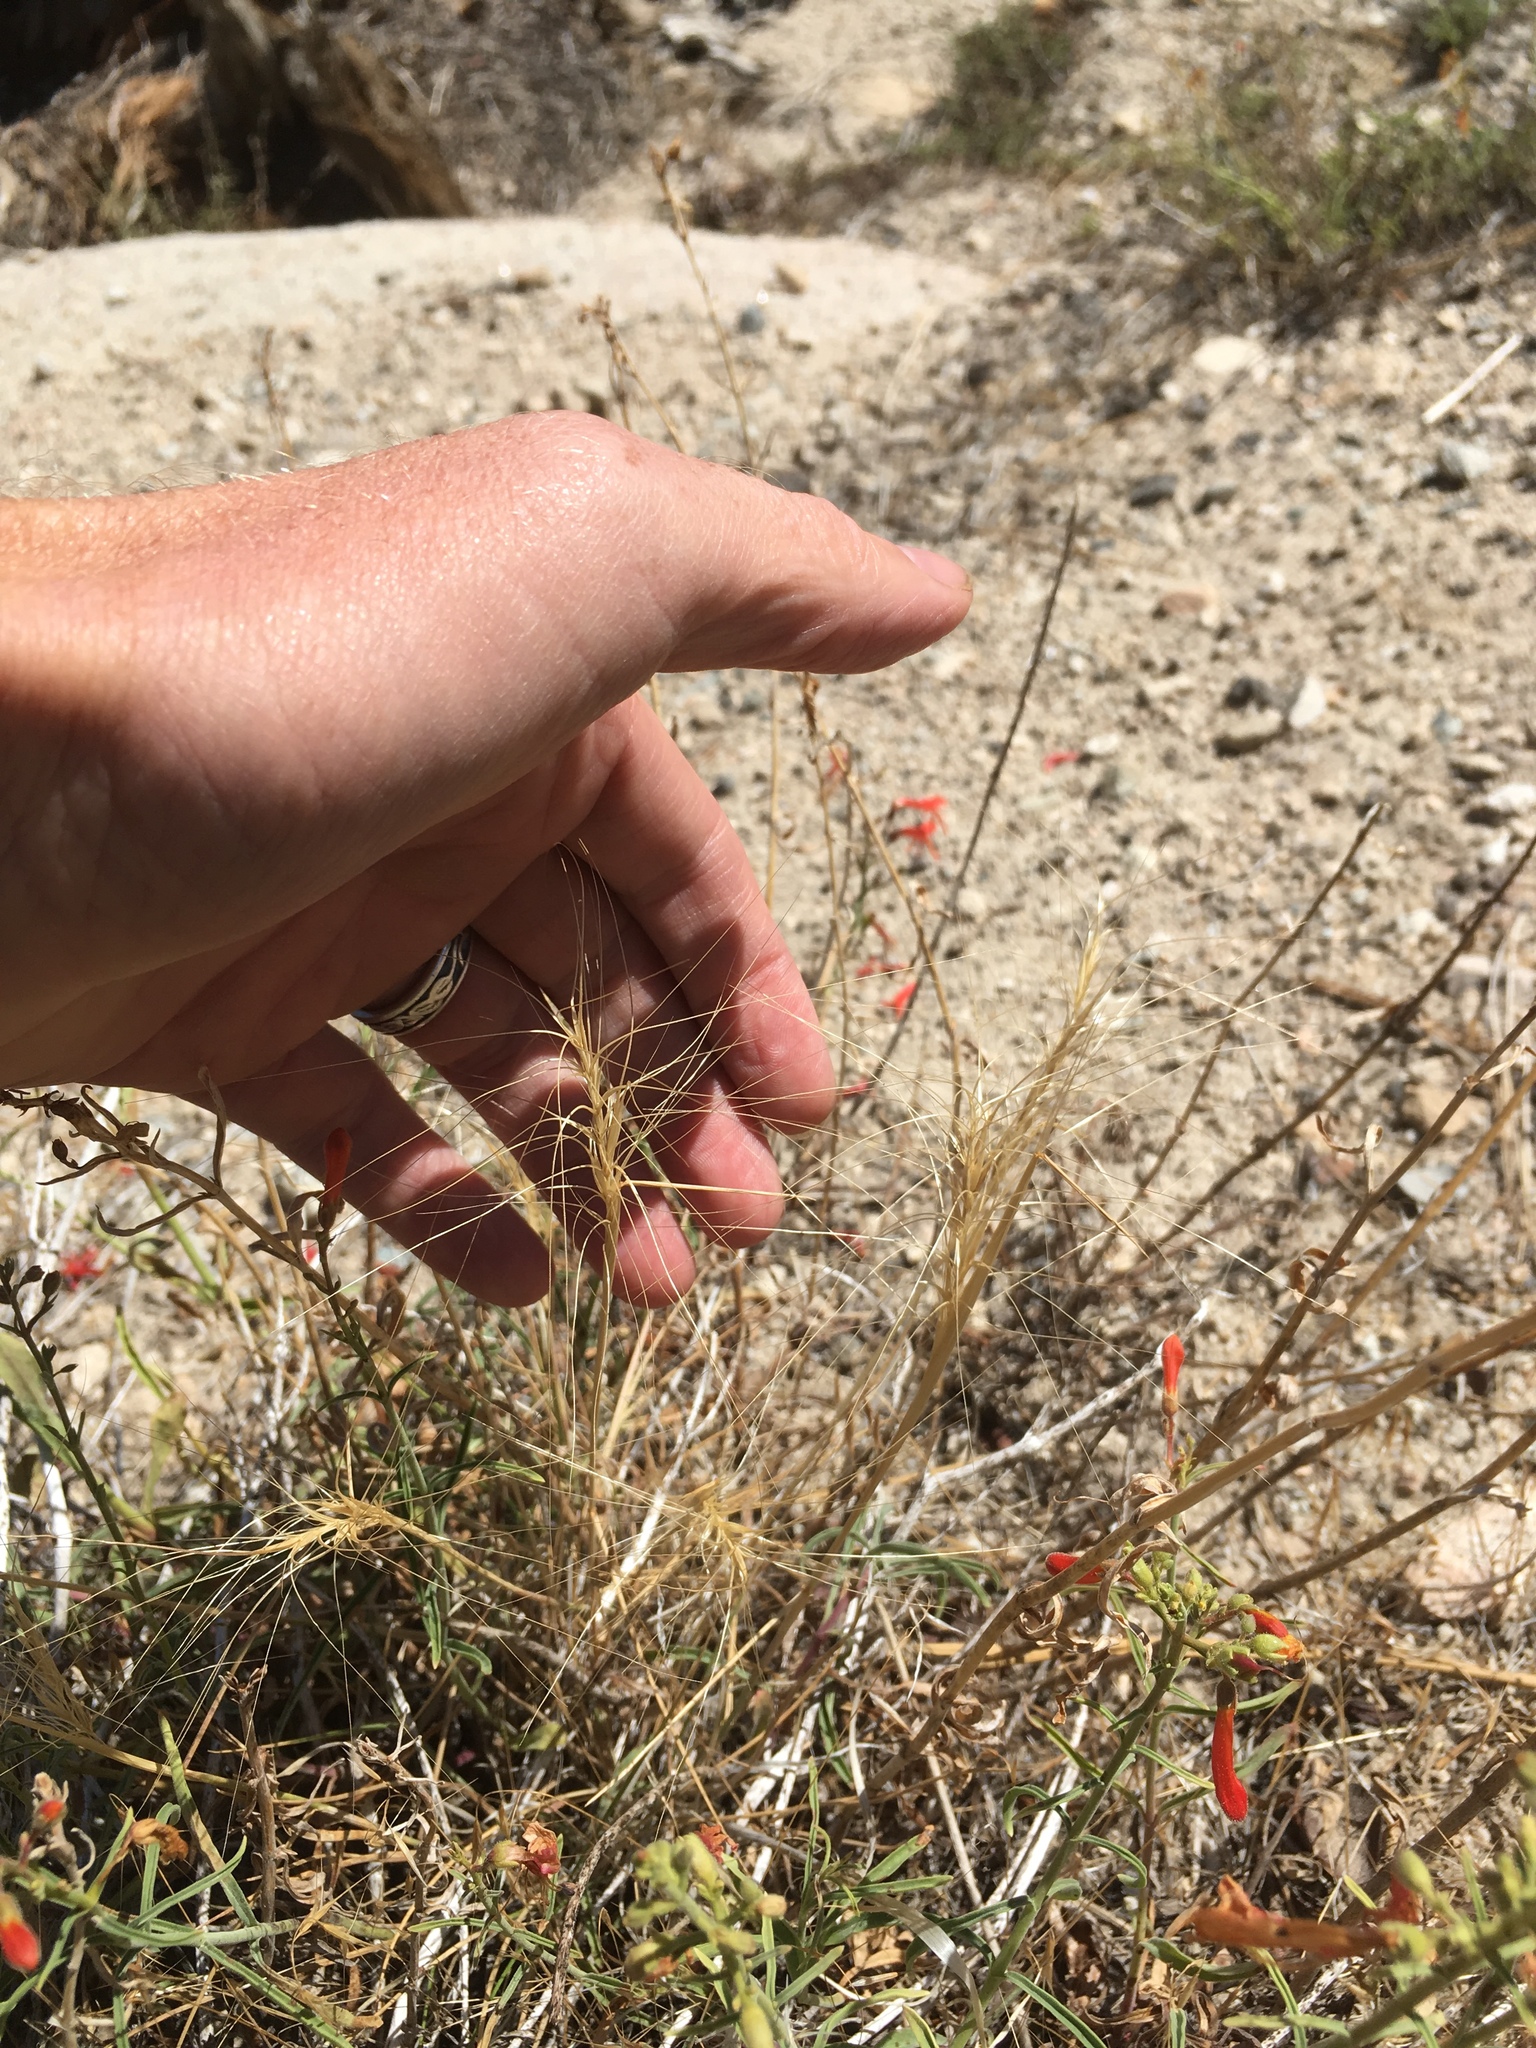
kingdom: Plantae
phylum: Tracheophyta
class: Liliopsida
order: Poales
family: Poaceae
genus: Elymus
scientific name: Elymus elymoides
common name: Bottlebrush squirreltail
